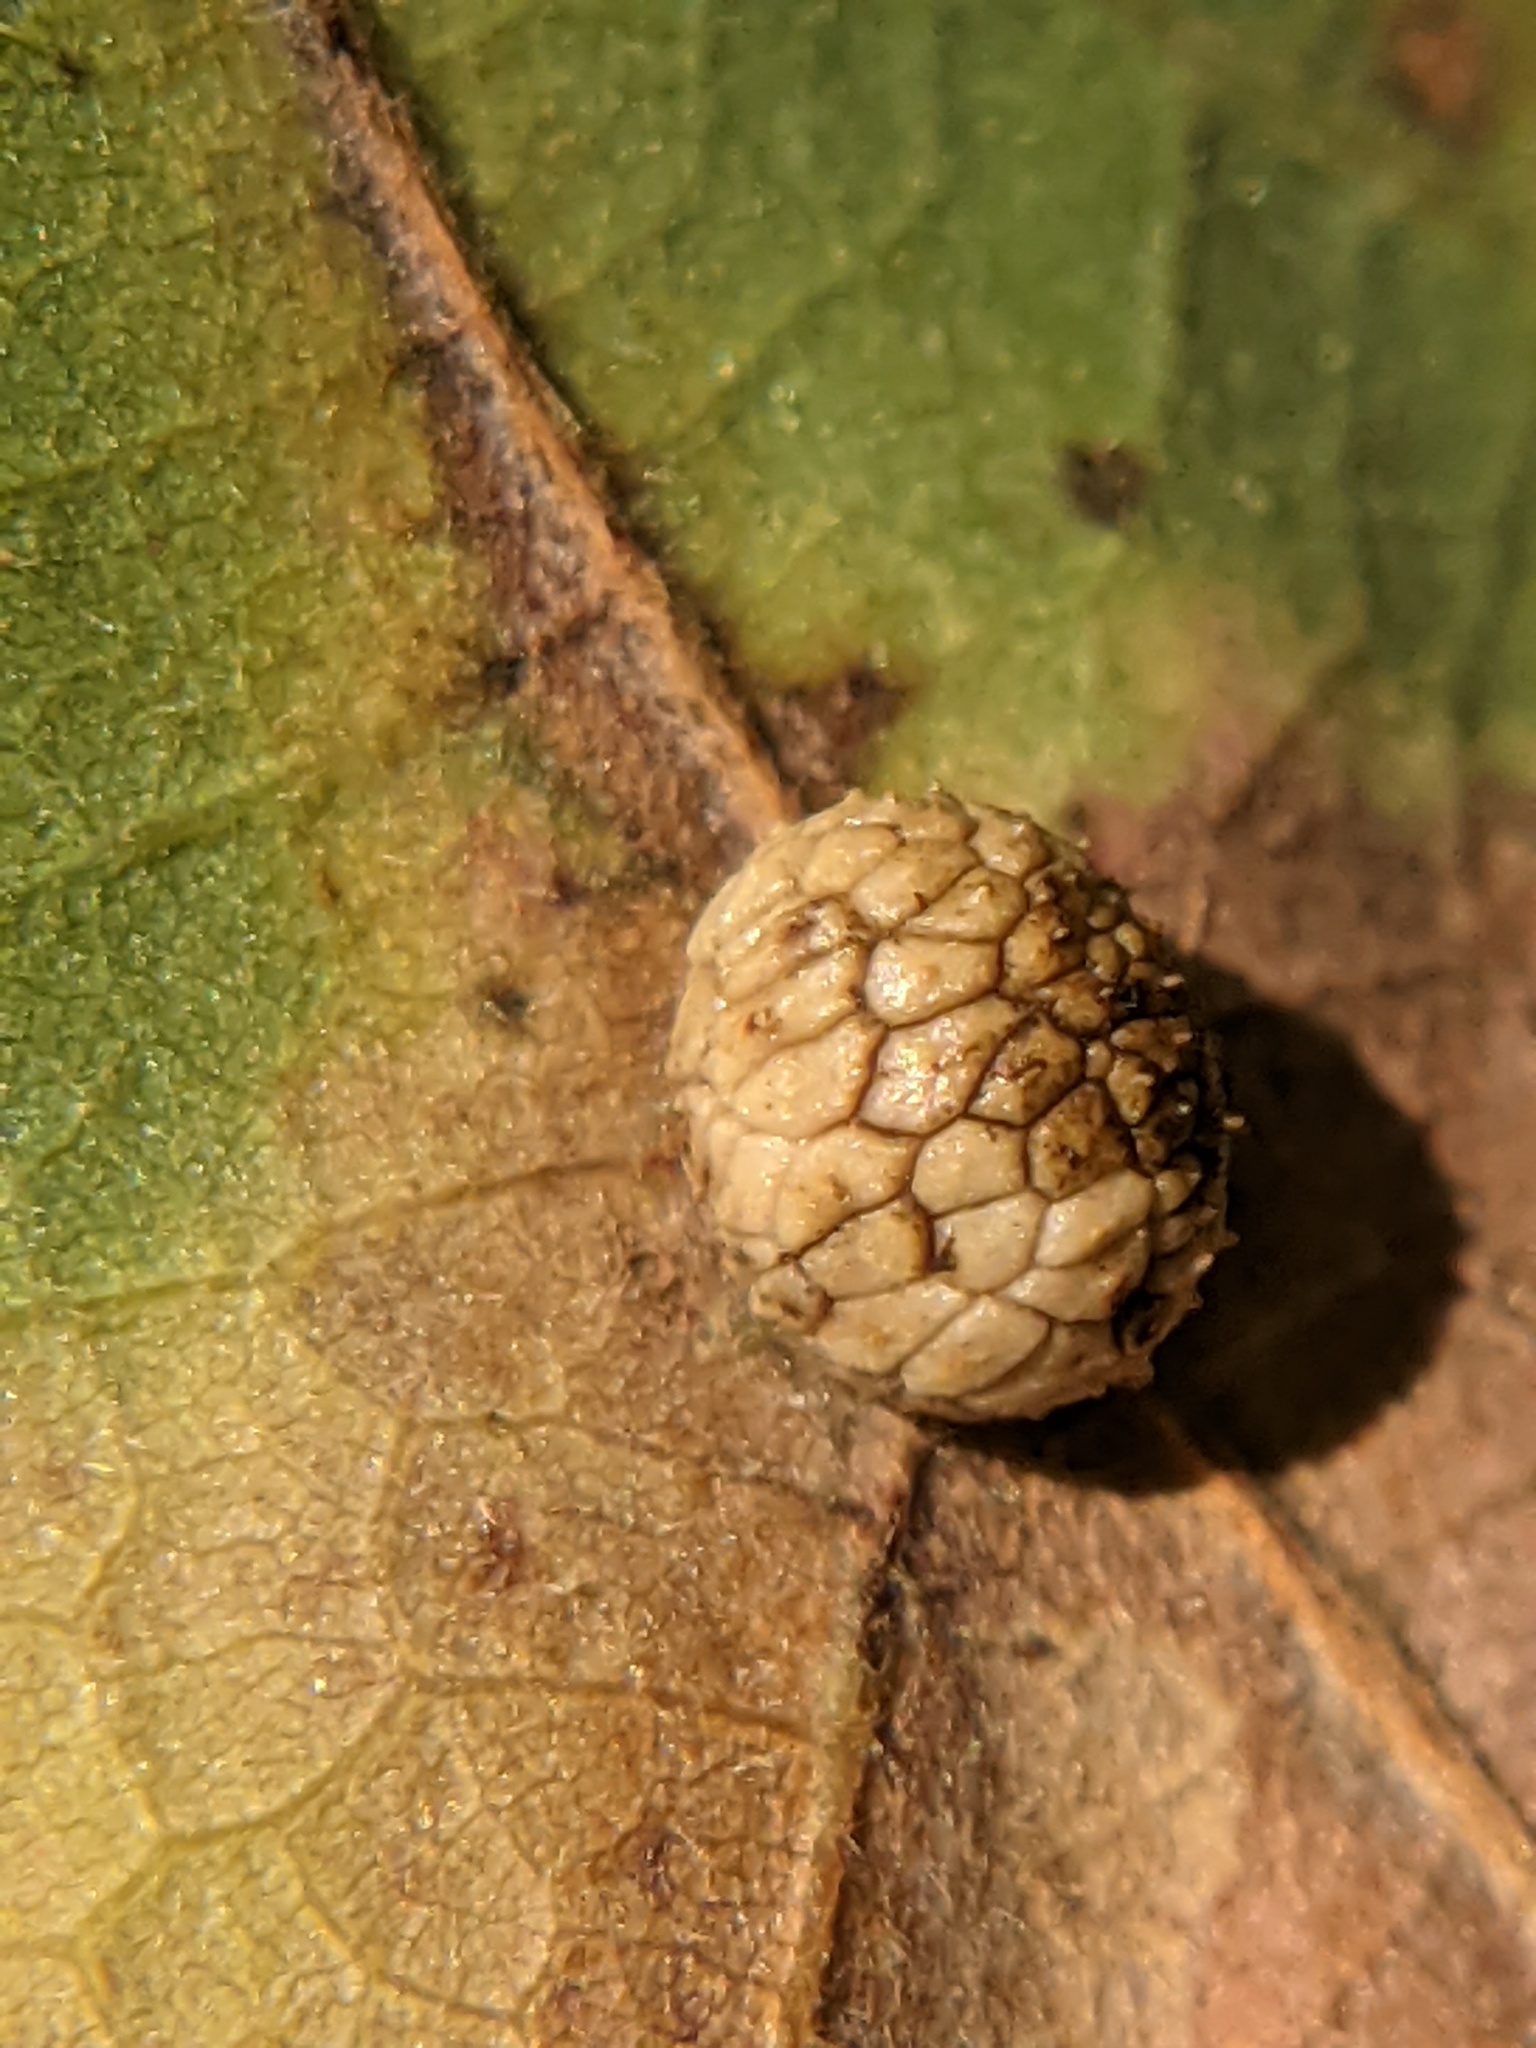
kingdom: Animalia
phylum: Arthropoda
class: Insecta
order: Hymenoptera
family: Cynipidae
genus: Acraspis
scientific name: Acraspis quercushirta
